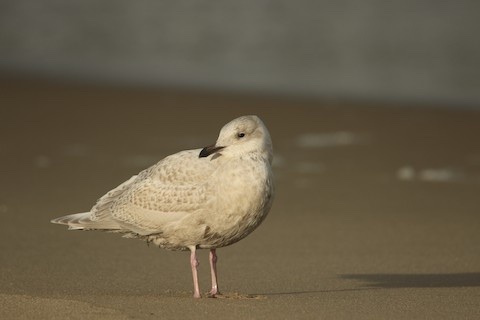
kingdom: Animalia
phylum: Chordata
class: Aves
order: Charadriiformes
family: Laridae
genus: Larus
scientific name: Larus glaucoides
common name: Iceland gull
